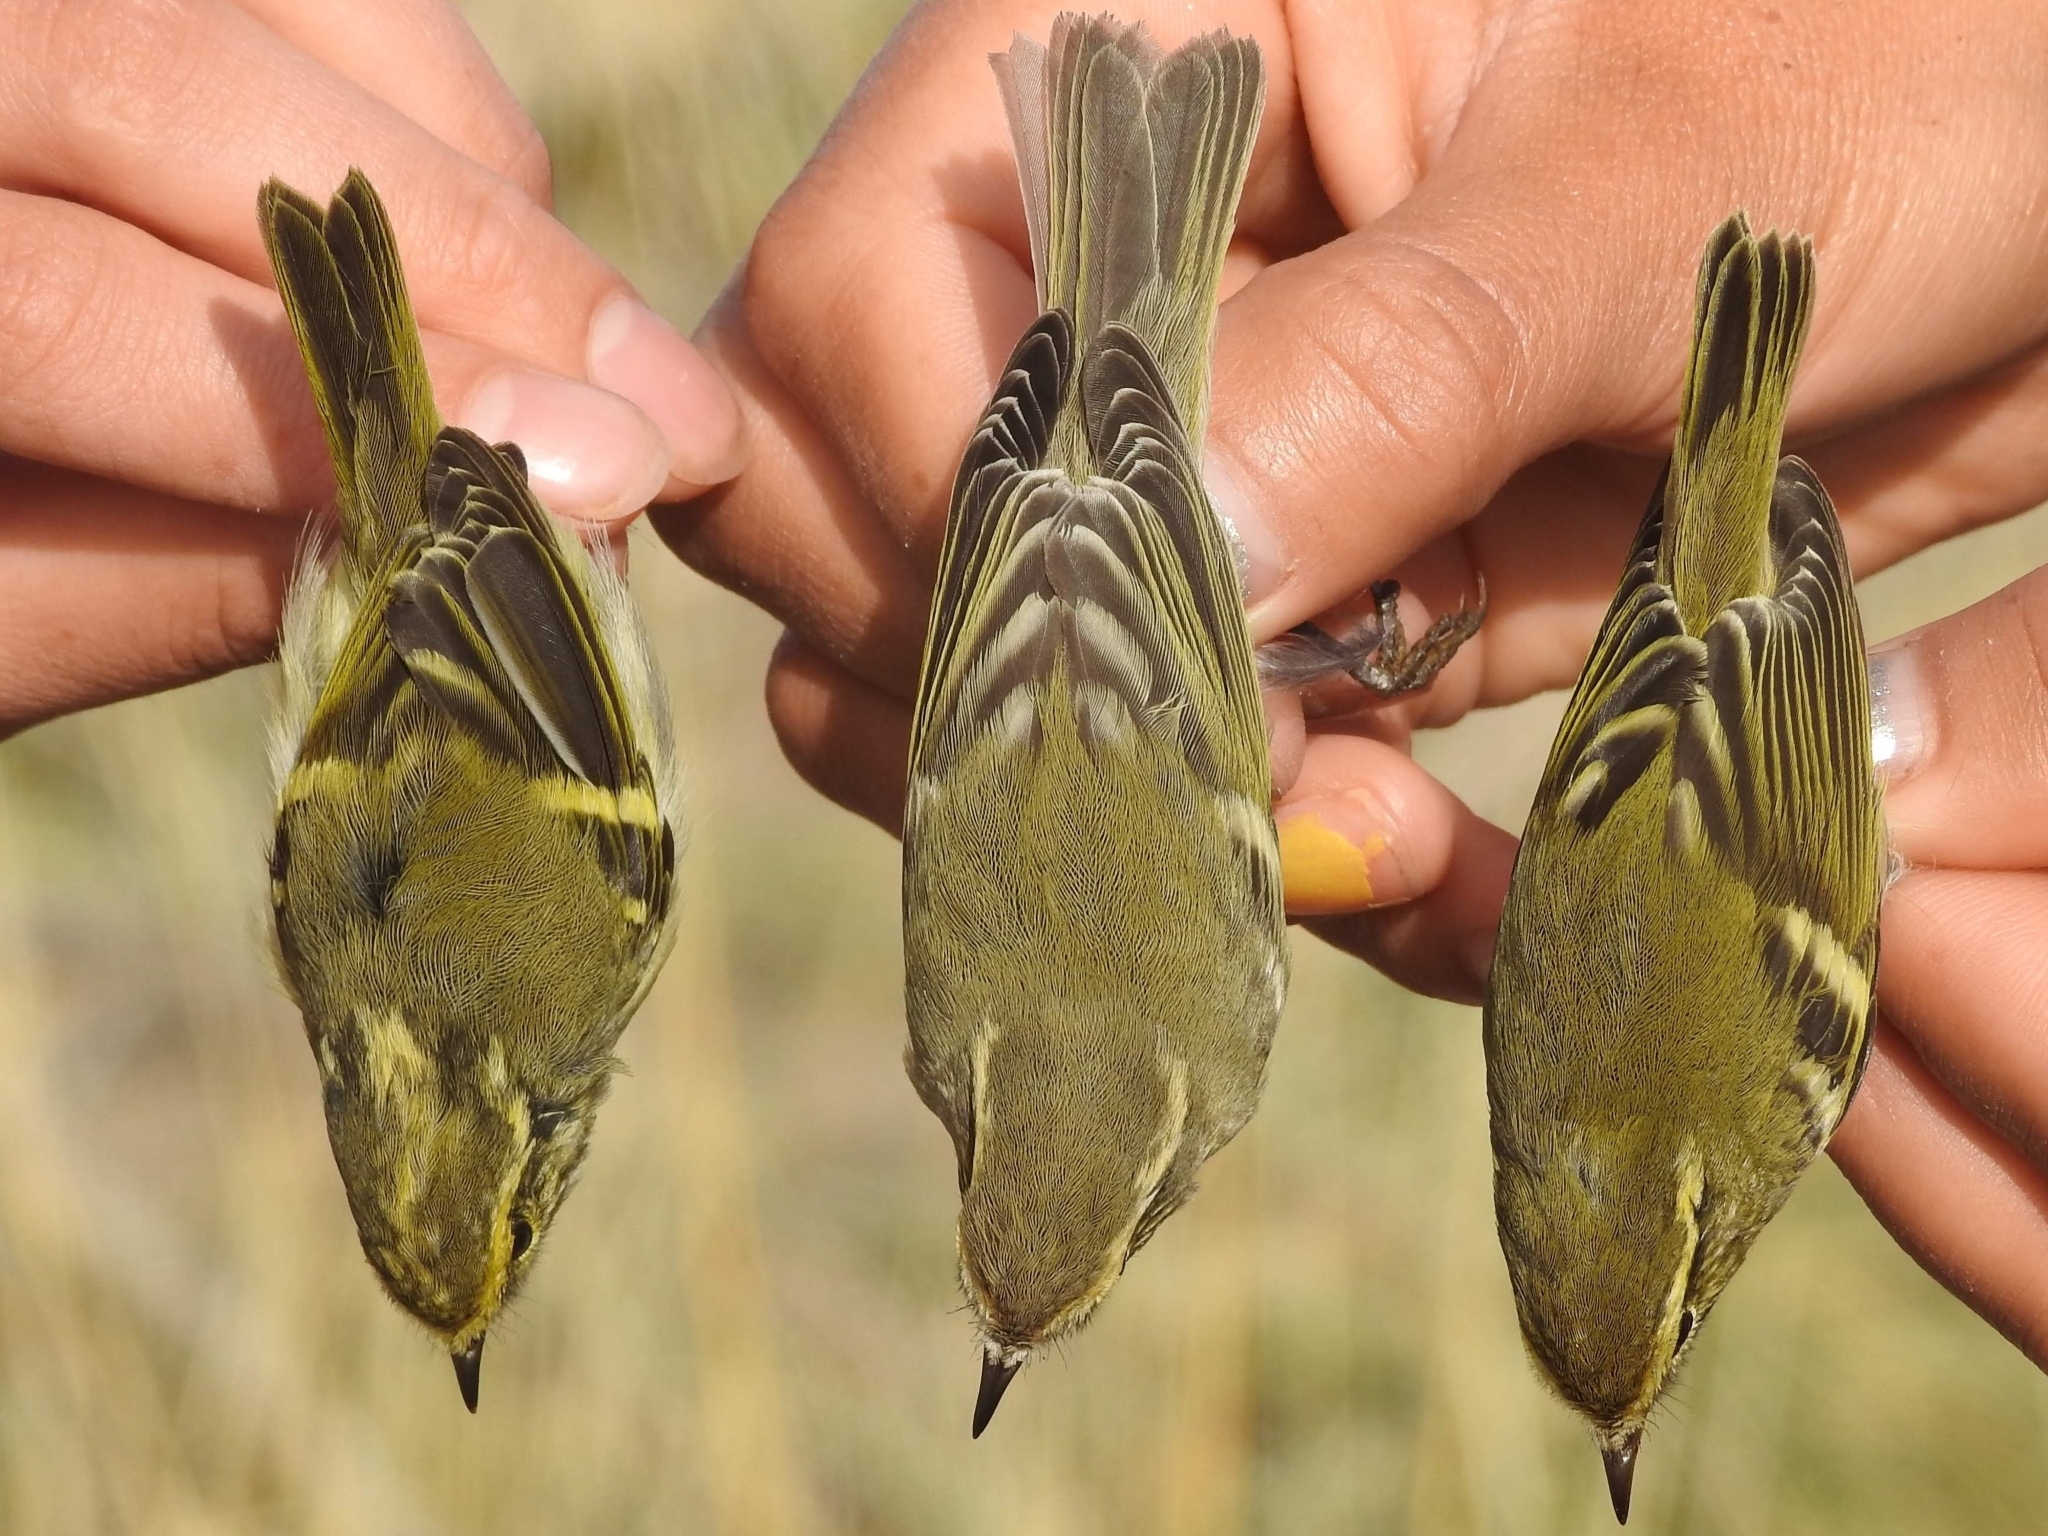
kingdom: Animalia
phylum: Chordata
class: Aves
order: Passeriformes
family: Phylloscopidae
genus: Phylloscopus
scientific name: Phylloscopus proregulus
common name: Pallas's leaf warbler
